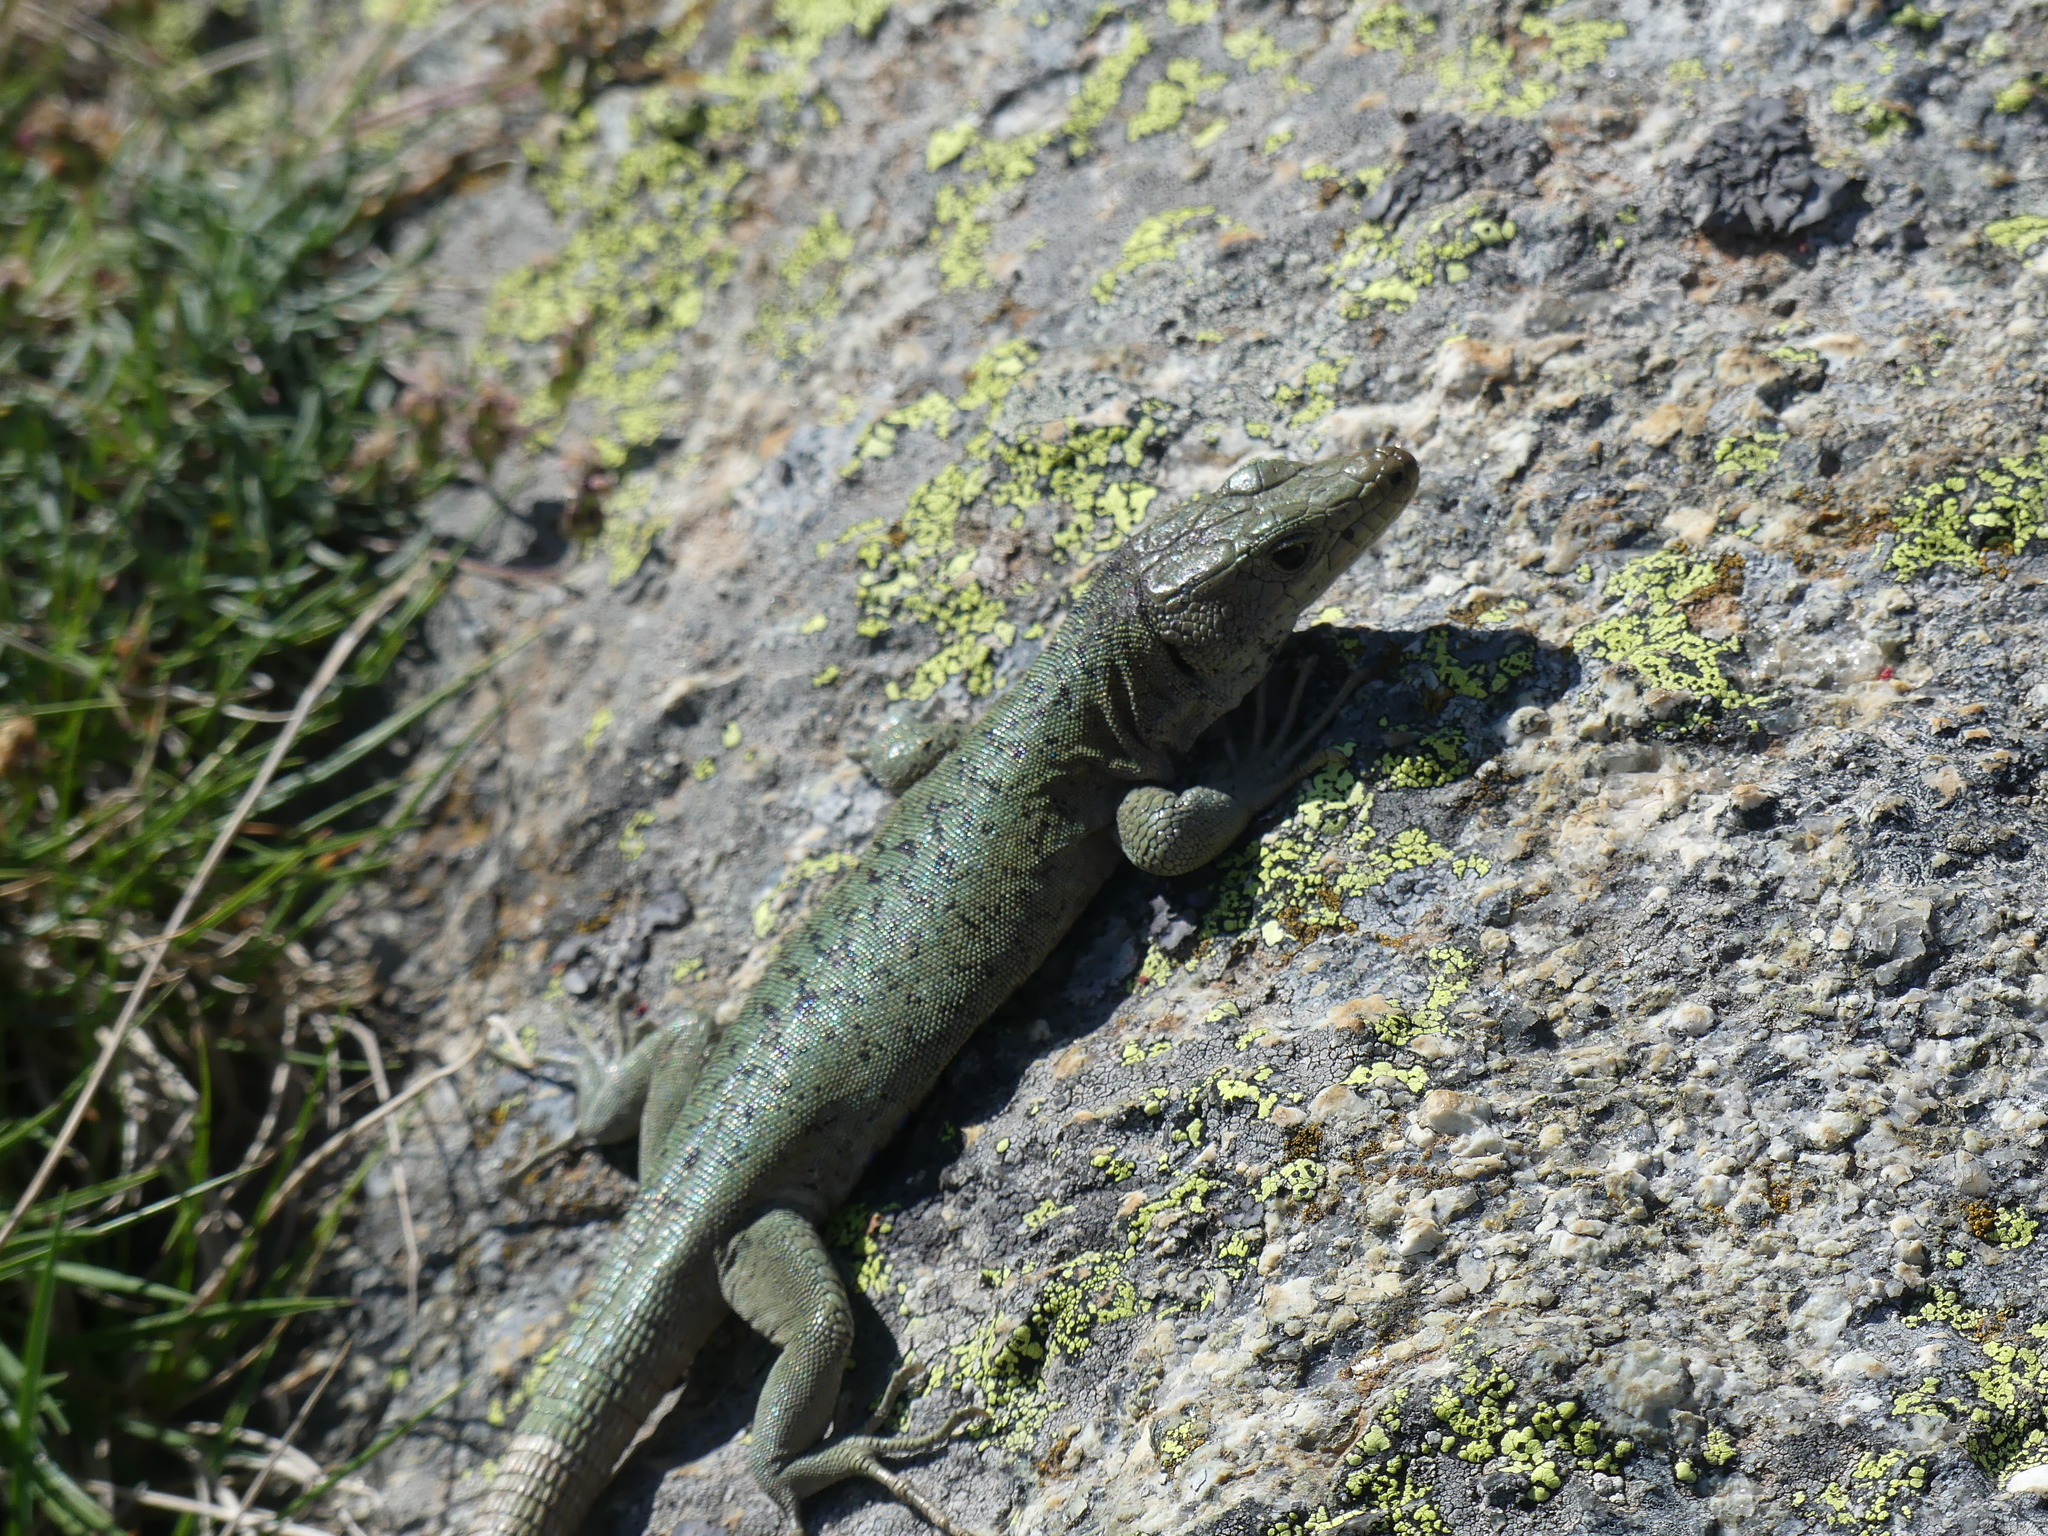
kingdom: Animalia
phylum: Chordata
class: Squamata
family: Lacertidae
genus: Archaeolacerta
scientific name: Archaeolacerta bedriagae
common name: Bedriaga's rock lizard
